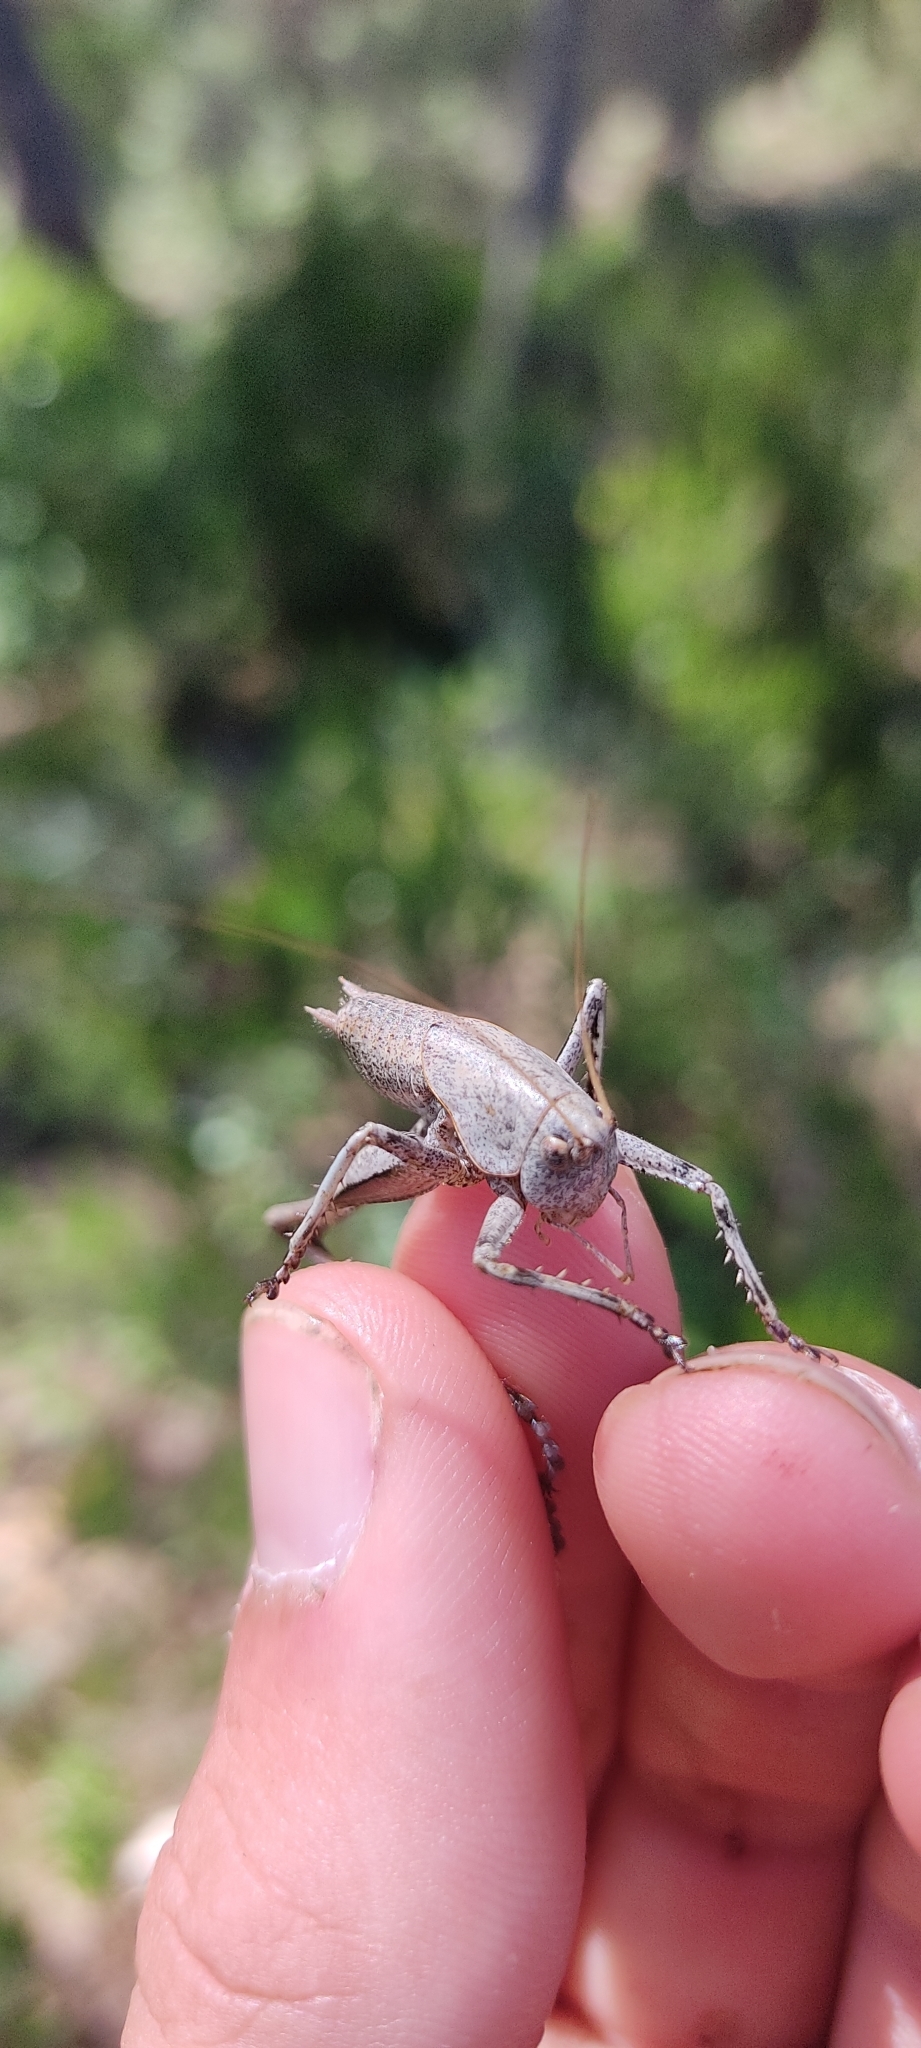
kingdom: Animalia
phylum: Arthropoda
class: Insecta
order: Orthoptera
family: Tettigoniidae
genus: Thyreonotus
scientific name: Thyreonotus corsicus
